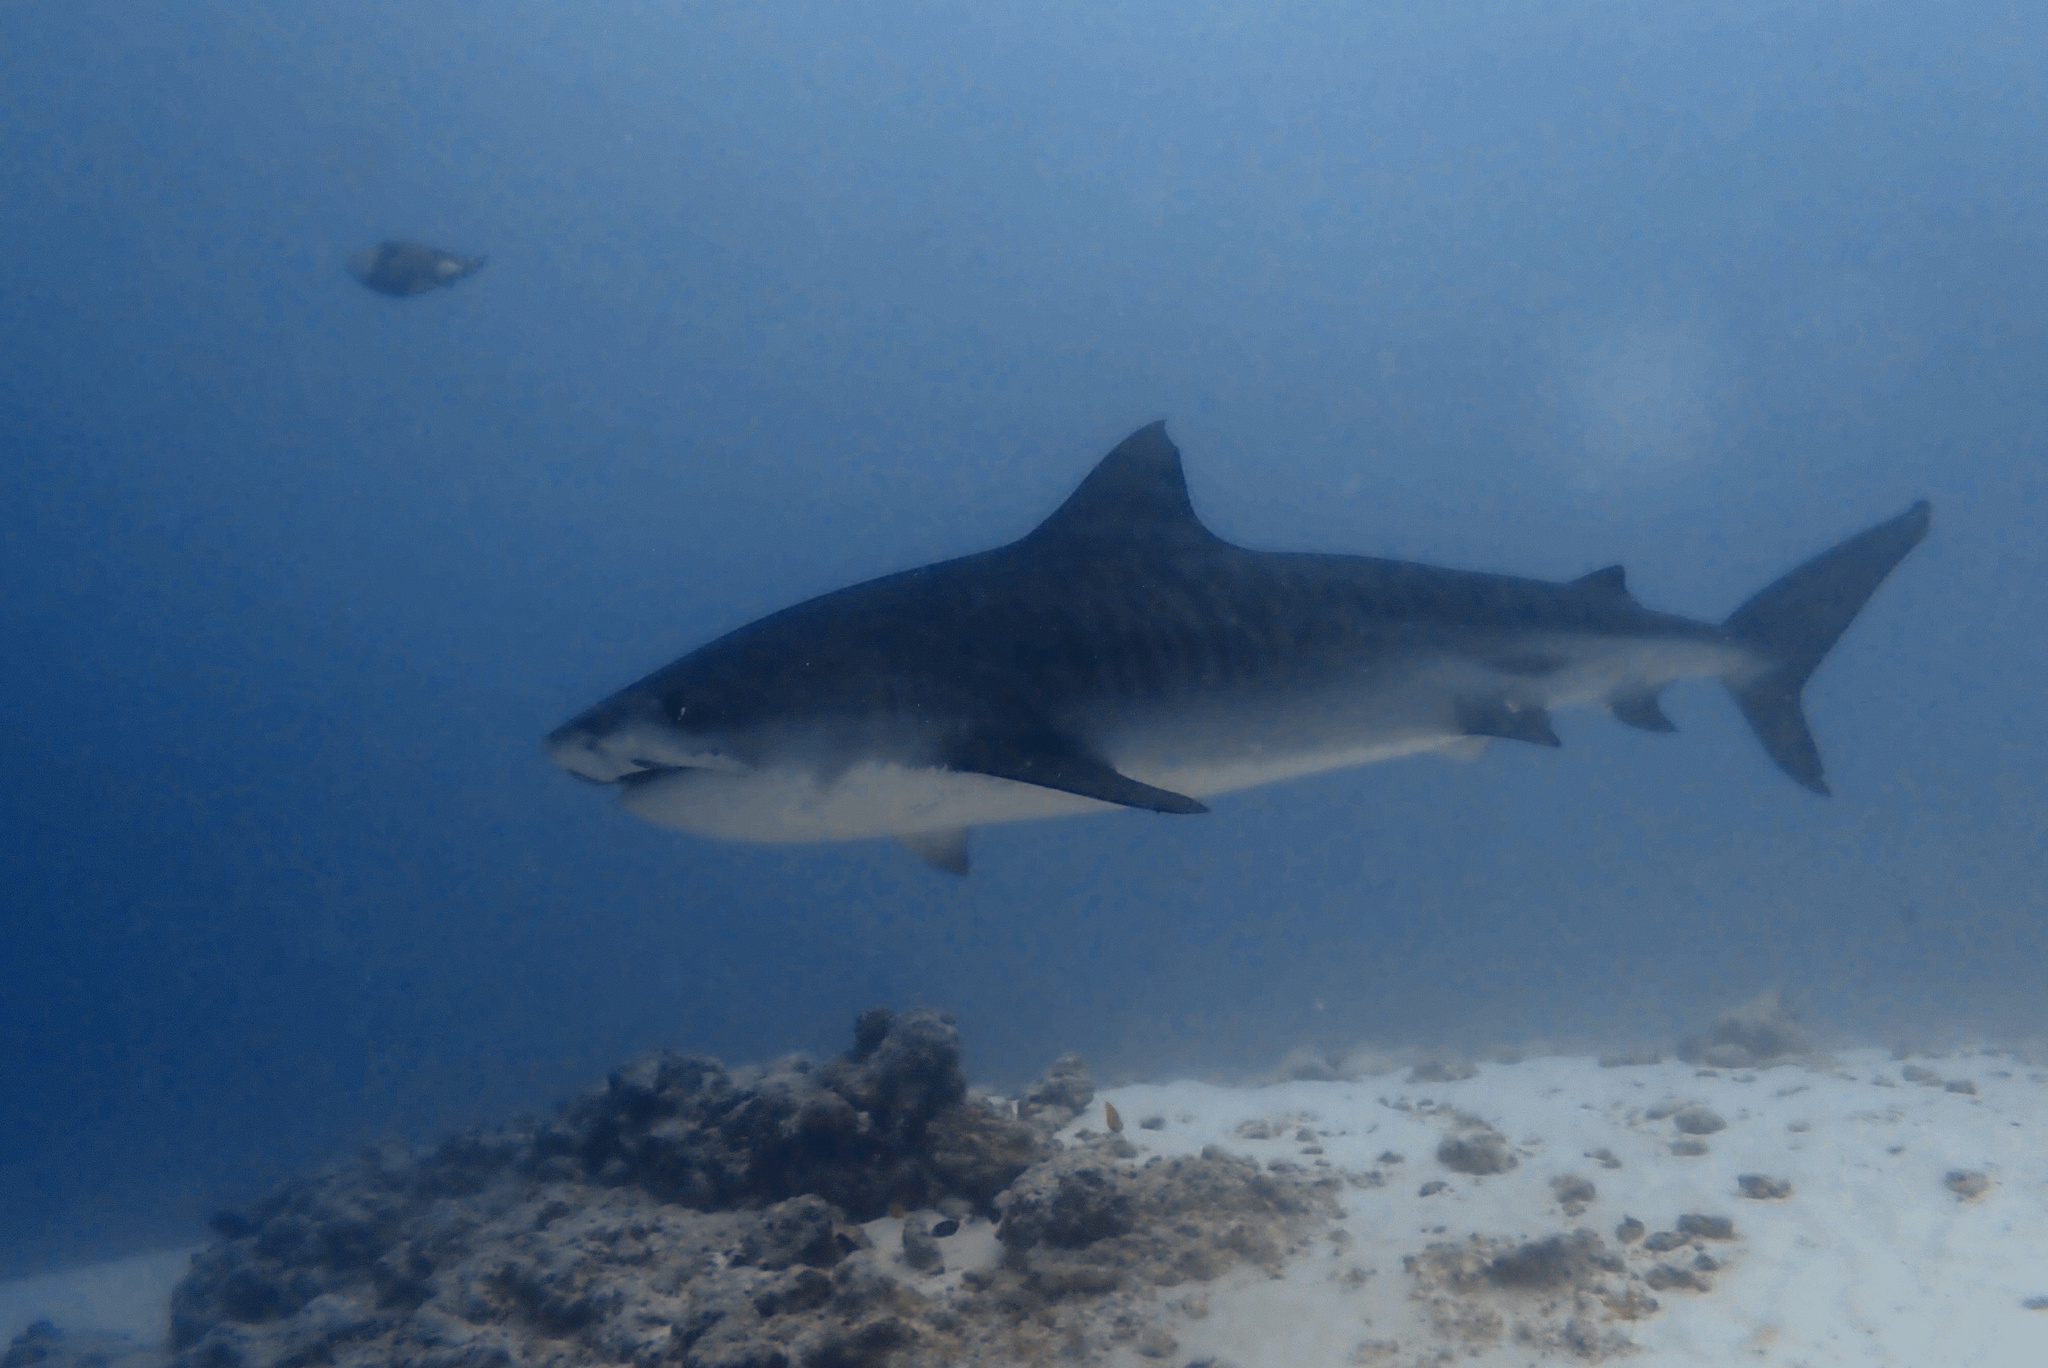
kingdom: Animalia
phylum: Chordata
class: Elasmobranchii
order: Carcharhiniformes
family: Carcharhinidae
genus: Galeocerdo
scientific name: Galeocerdo cuvier
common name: Tiger shark
